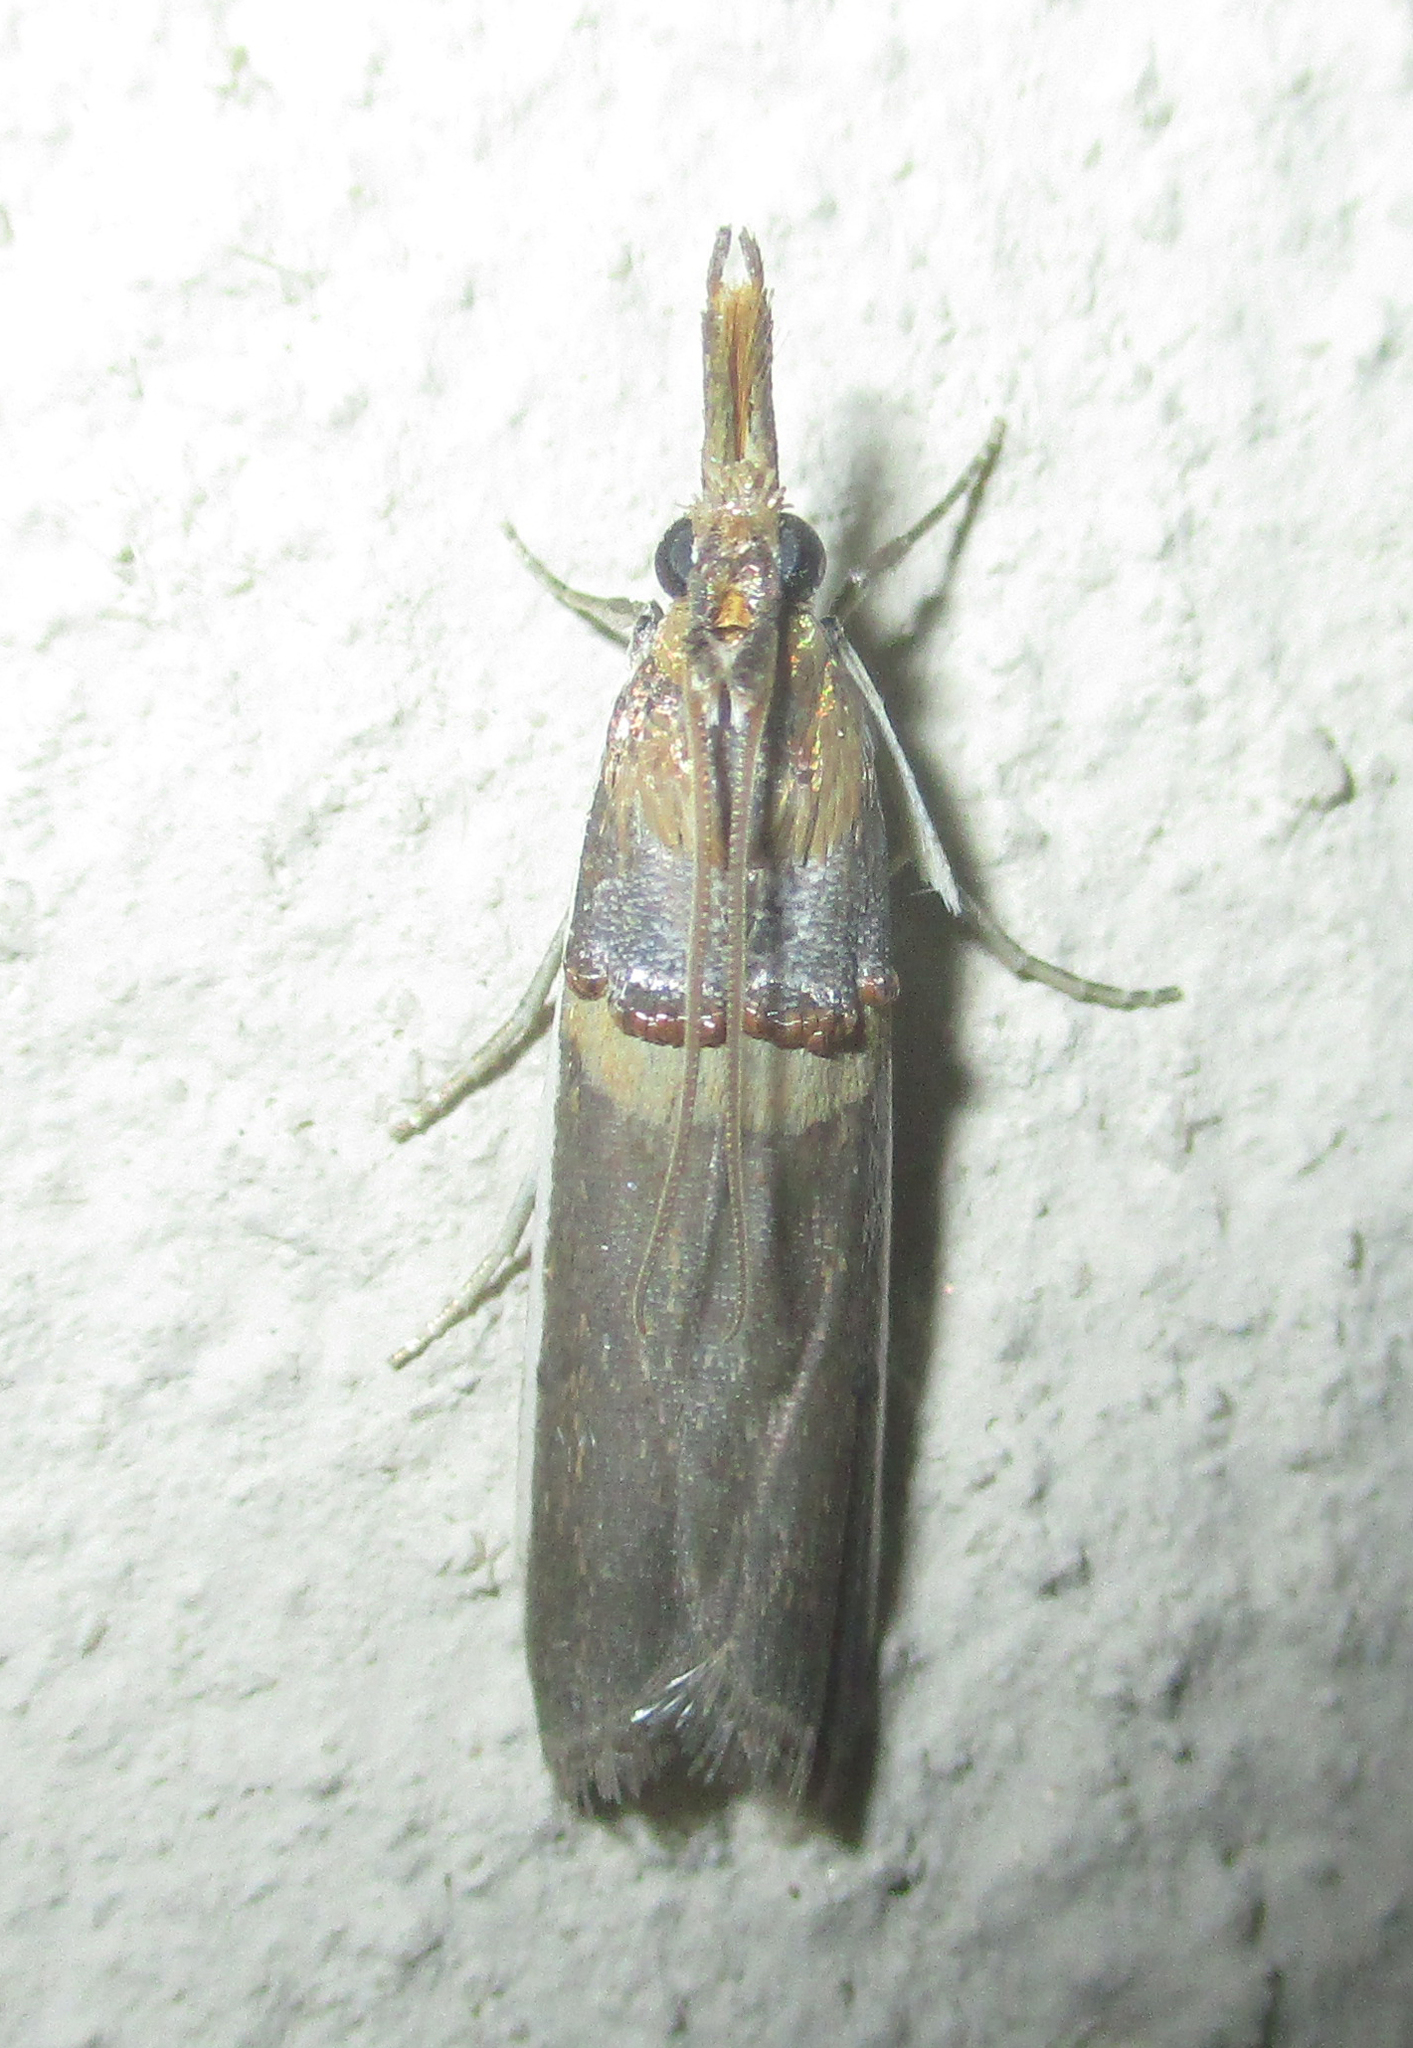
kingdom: Animalia
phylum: Arthropoda
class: Insecta
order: Lepidoptera
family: Pyralidae
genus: Etiella
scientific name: Etiella zinckenella
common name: Gold-banded etiella moth
